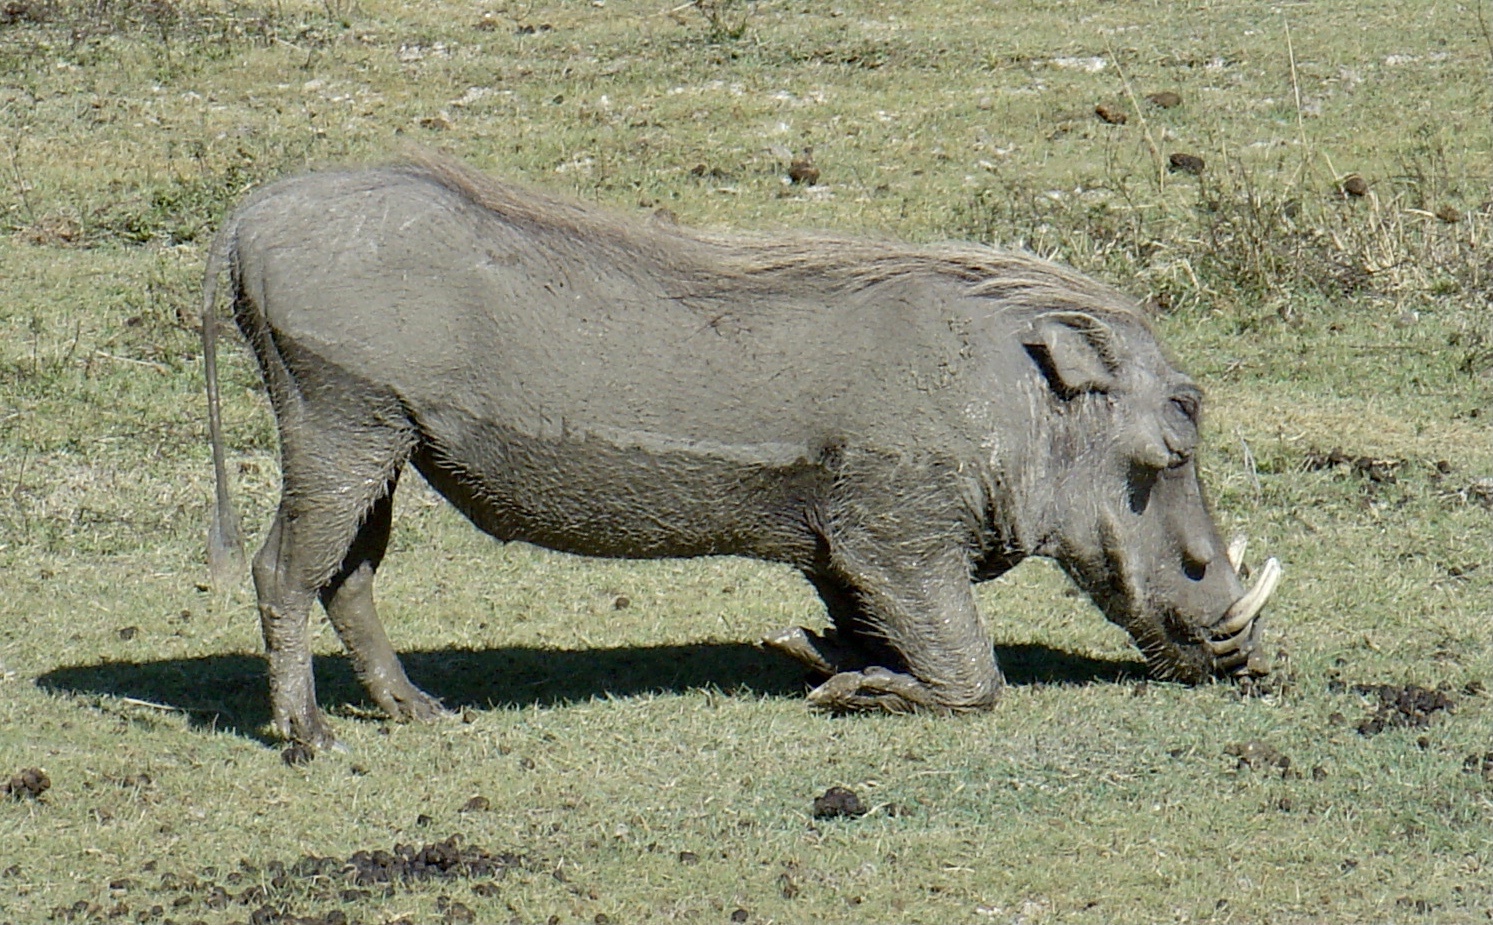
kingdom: Animalia
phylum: Chordata
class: Mammalia
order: Artiodactyla
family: Suidae
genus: Phacochoerus
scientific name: Phacochoerus africanus
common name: Common warthog
